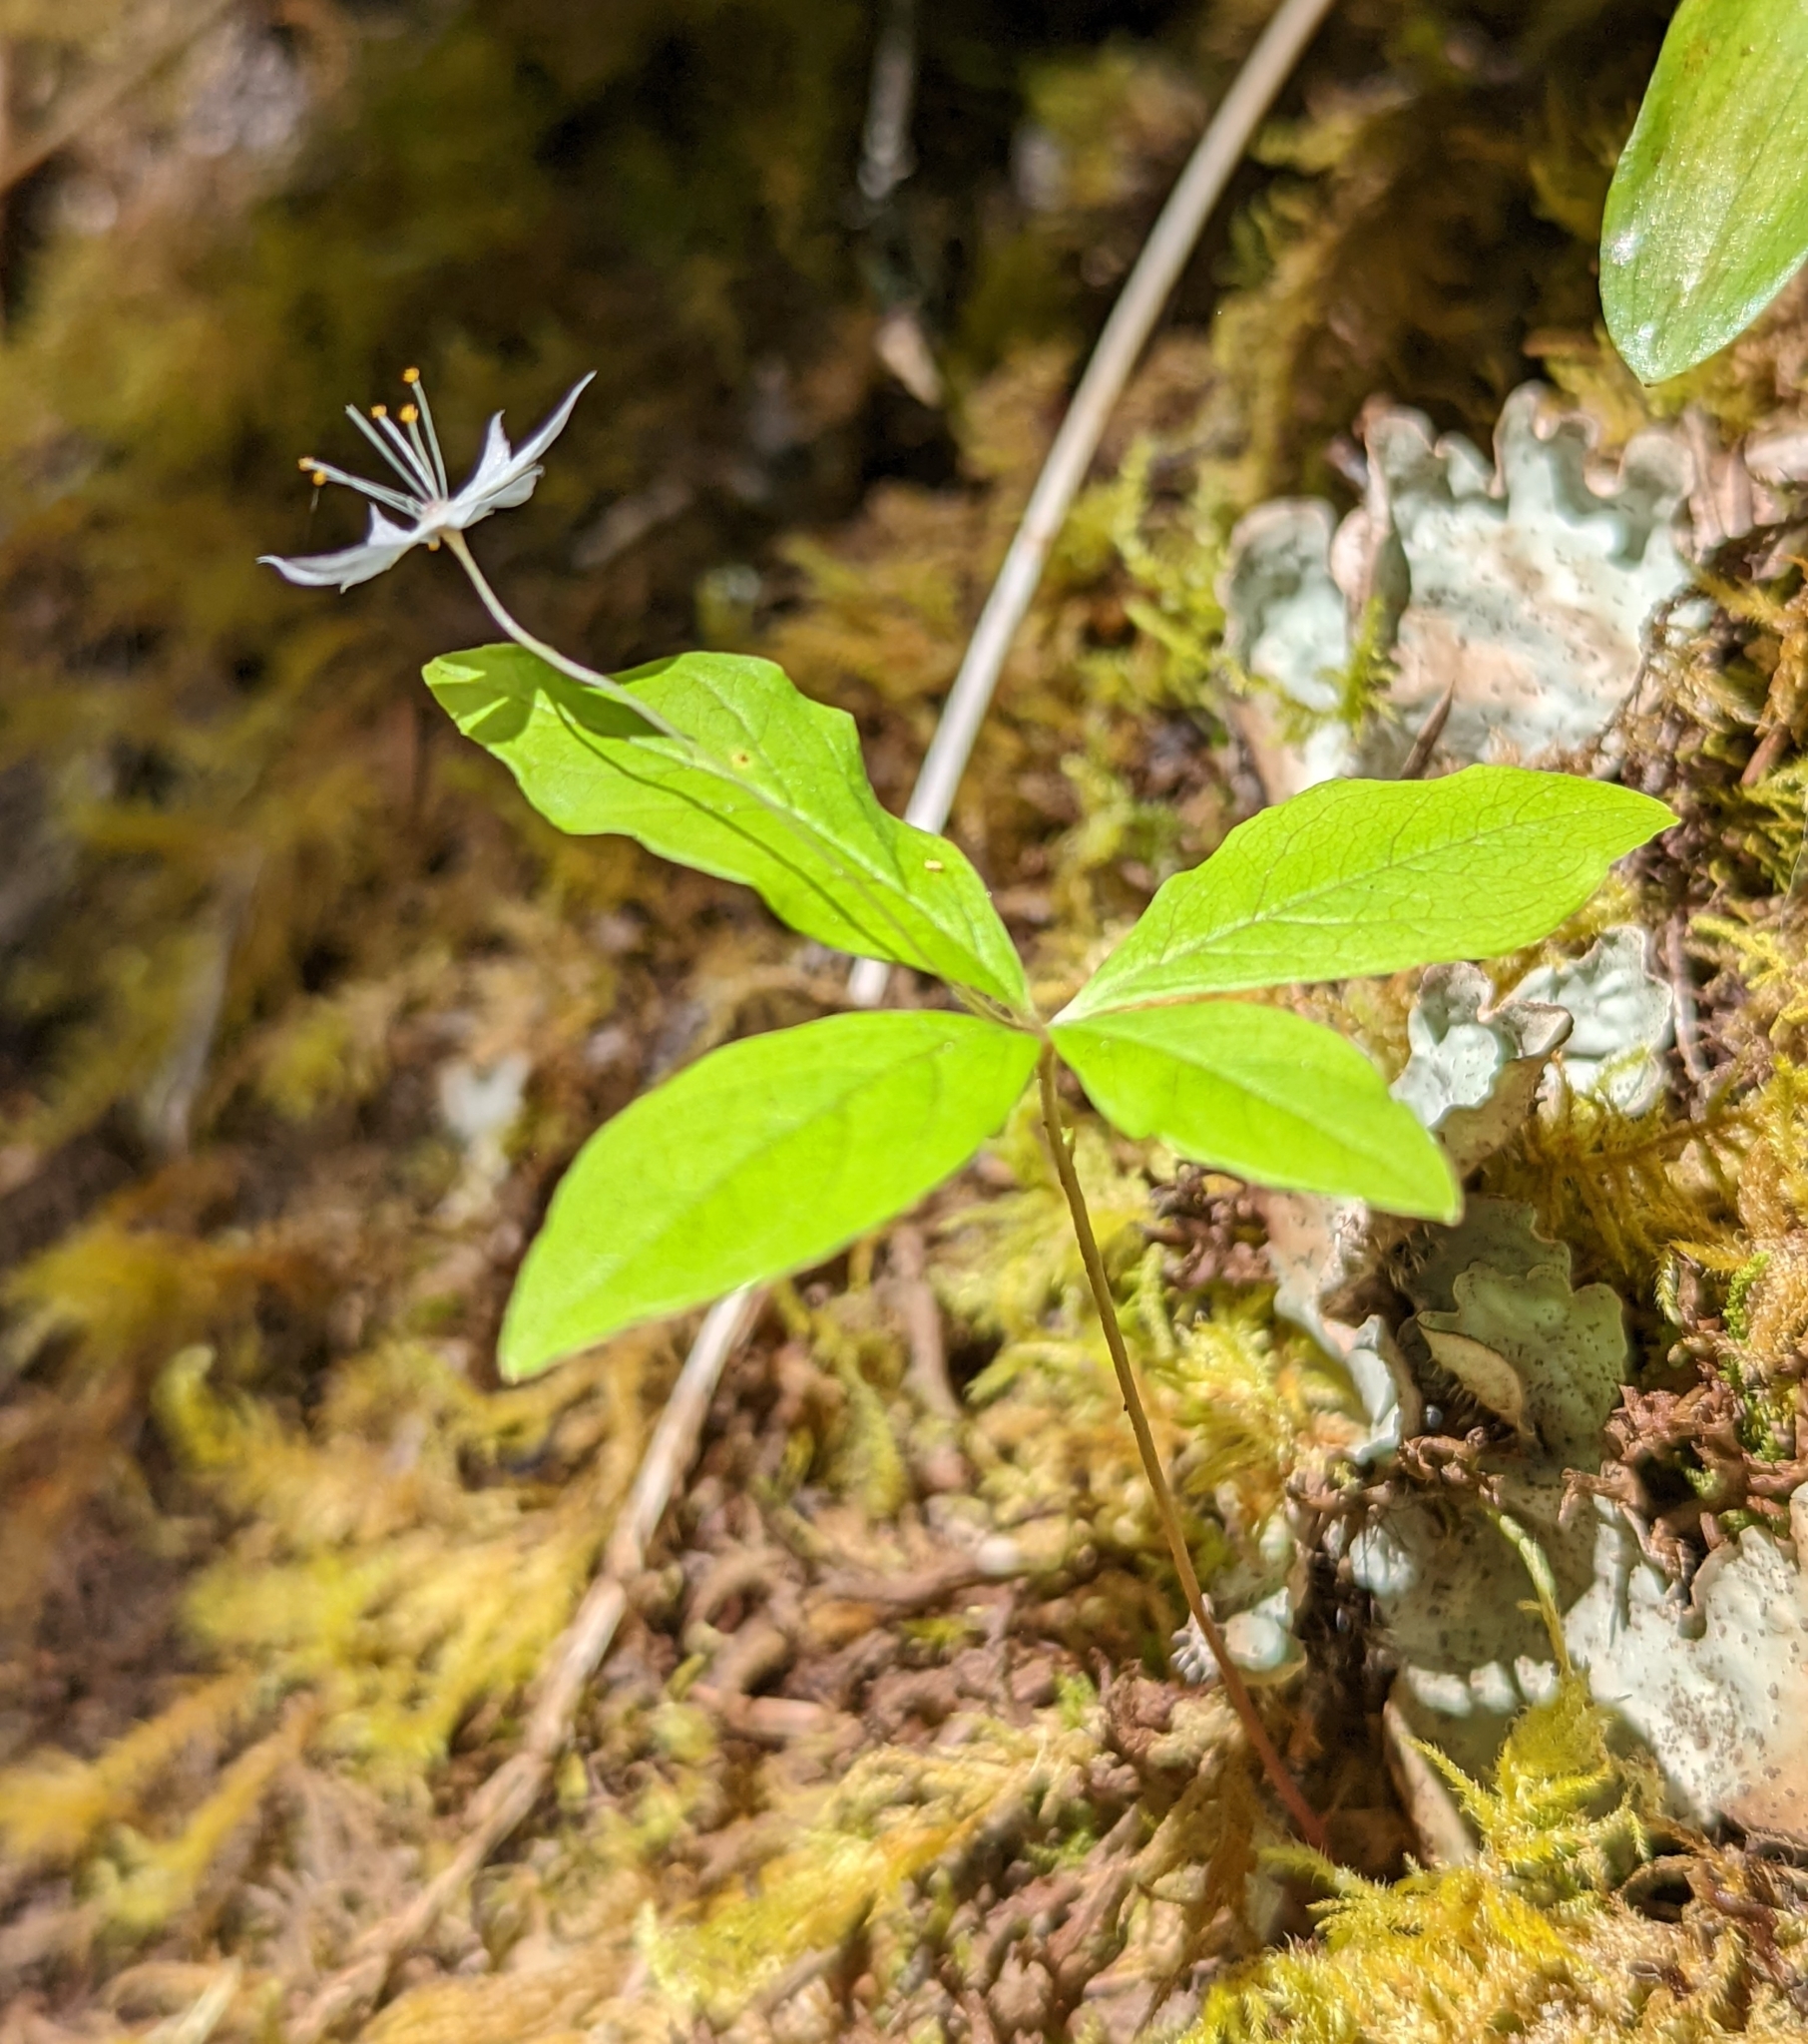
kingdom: Plantae
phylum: Tracheophyta
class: Magnoliopsida
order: Ericales
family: Primulaceae
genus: Lysimachia
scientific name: Lysimachia latifolia
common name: Pacific starflower
